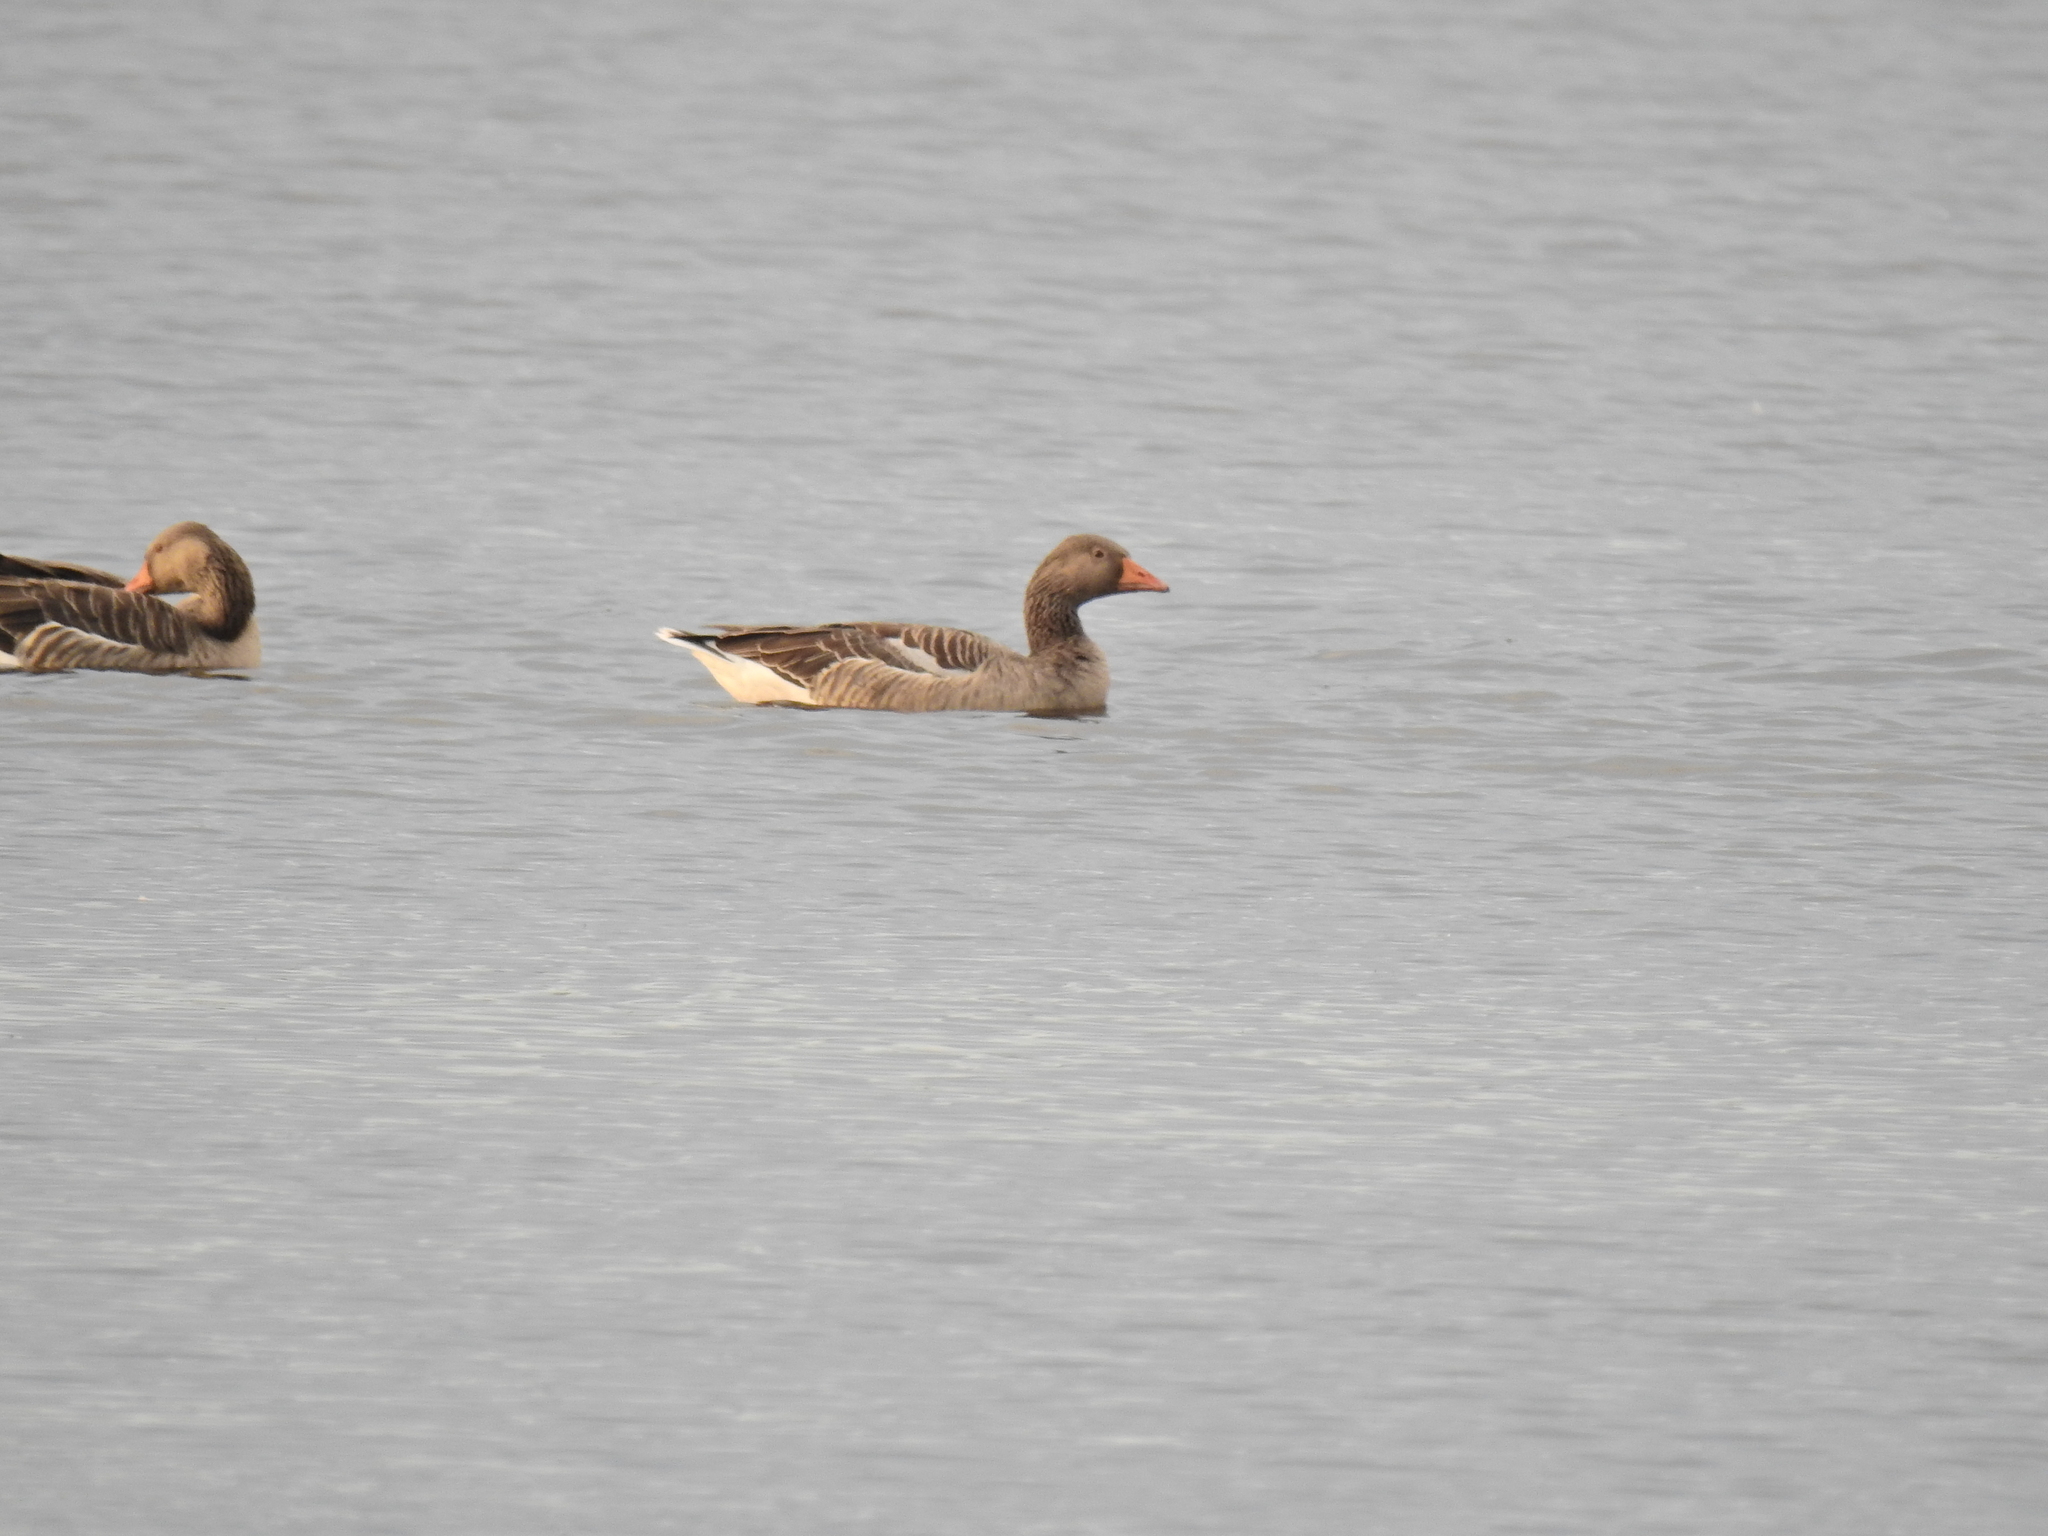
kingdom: Animalia
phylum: Chordata
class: Aves
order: Anseriformes
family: Anatidae
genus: Anser
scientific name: Anser anser
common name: Greylag goose
